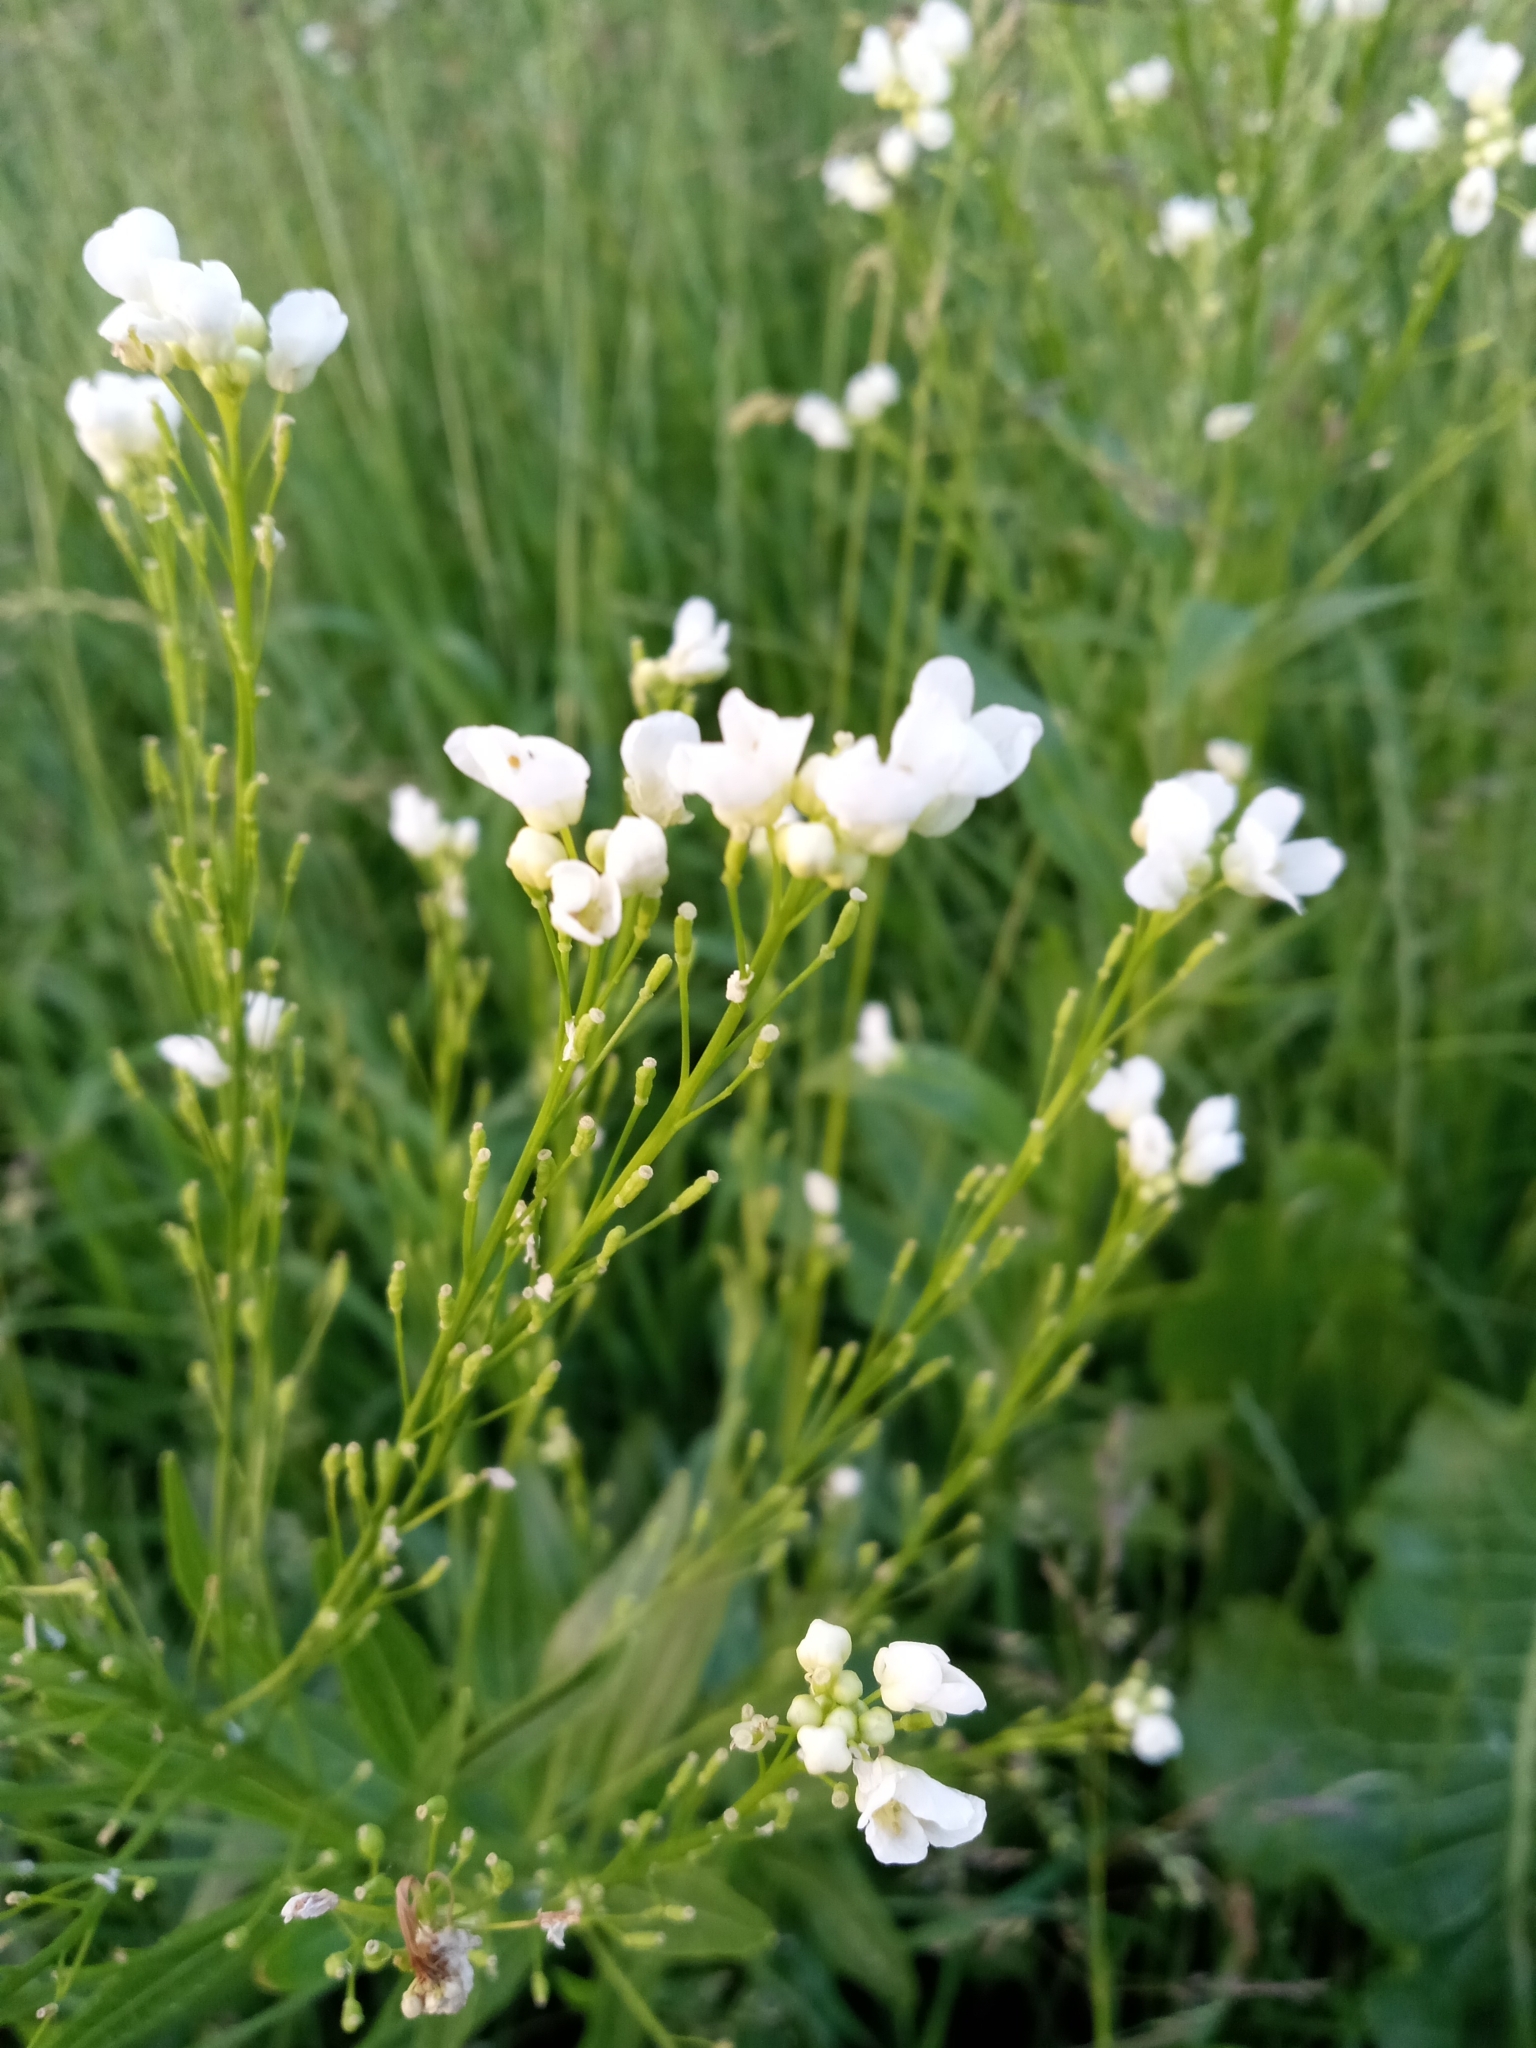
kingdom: Plantae
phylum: Tracheophyta
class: Magnoliopsida
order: Brassicales
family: Brassicaceae
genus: Armoracia
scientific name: Armoracia rusticana
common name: Horseradish
